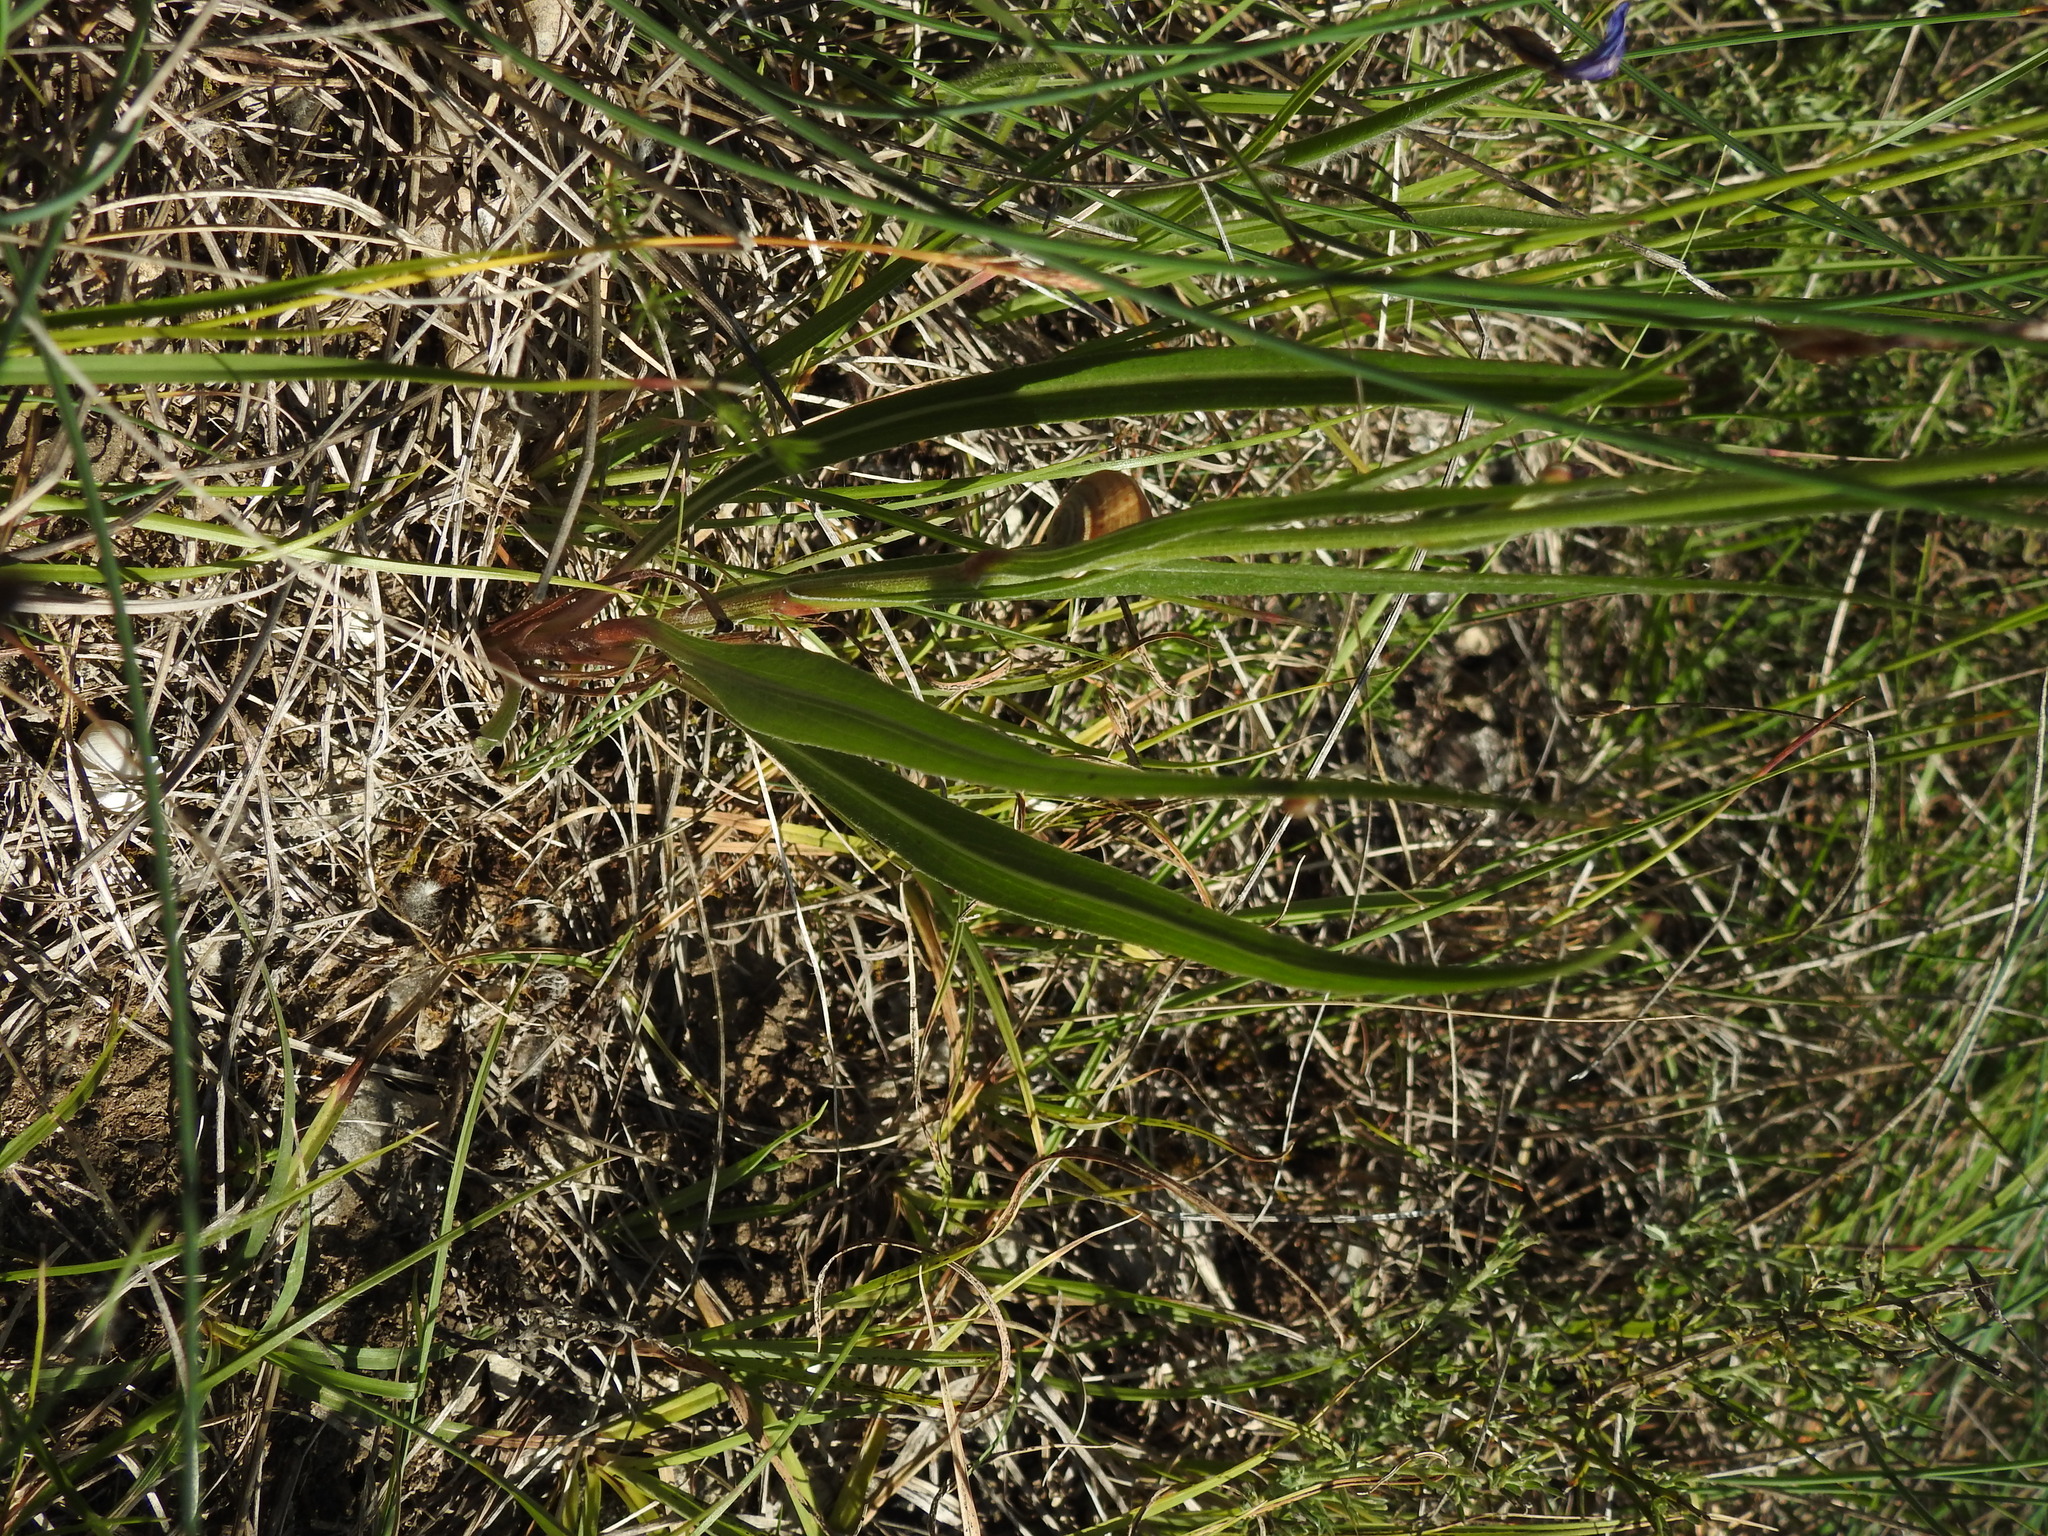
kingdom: Plantae
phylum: Tracheophyta
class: Magnoliopsida
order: Asterales
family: Asteraceae
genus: Pseudopodospermum
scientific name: Pseudopodospermum hispanicum
